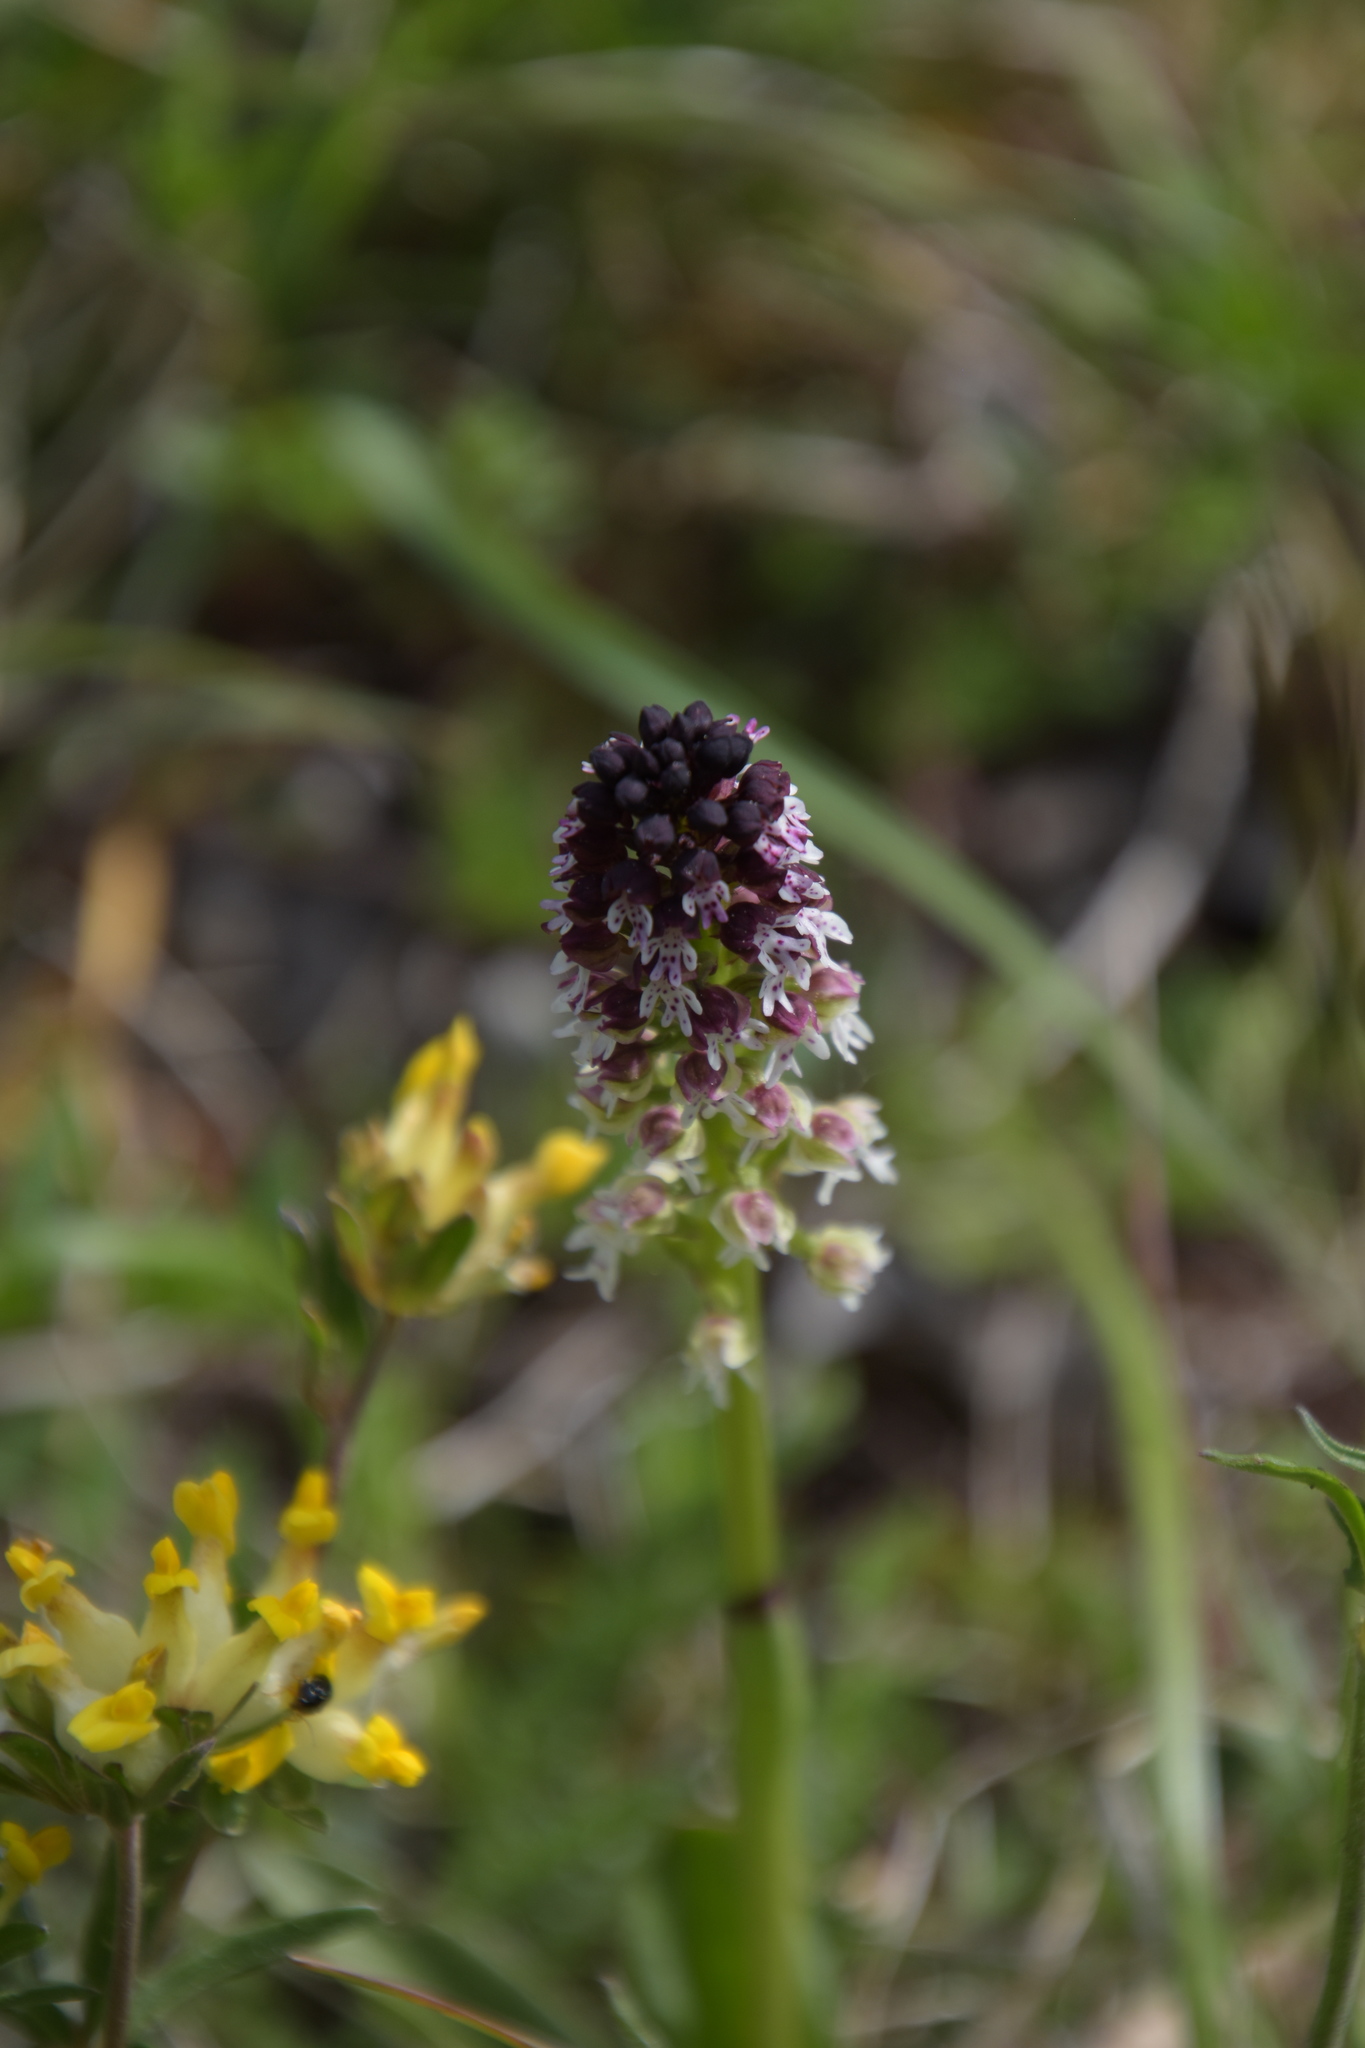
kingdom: Plantae
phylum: Tracheophyta
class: Liliopsida
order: Asparagales
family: Orchidaceae
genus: Neotinea
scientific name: Neotinea ustulata
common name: Burnt orchid
